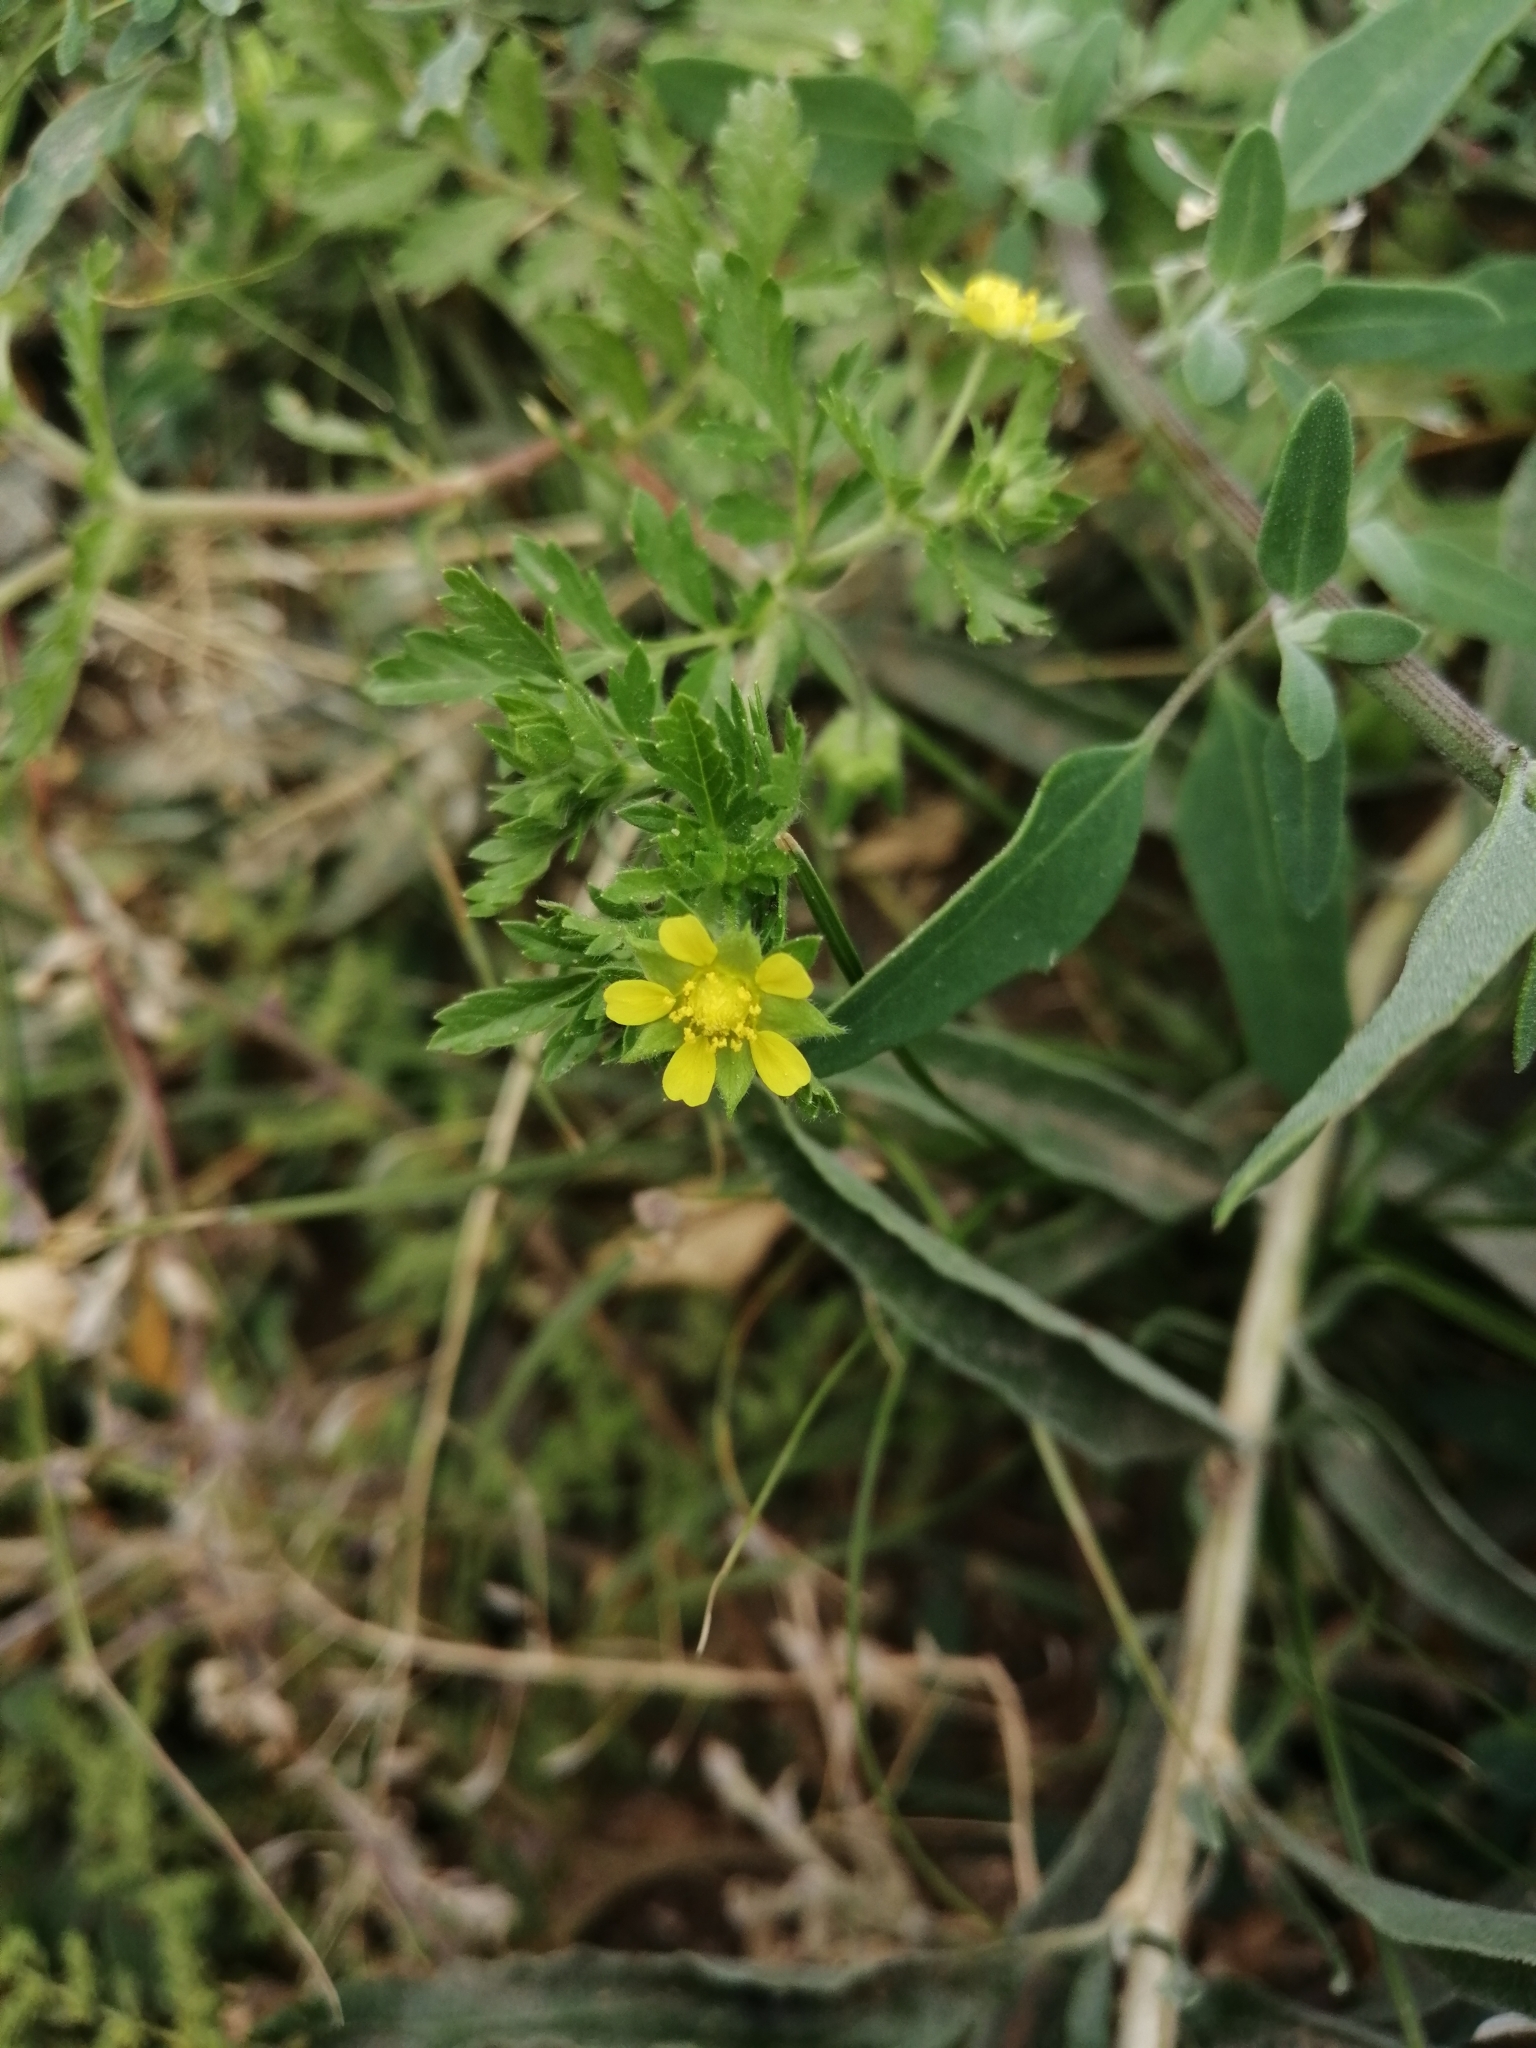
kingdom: Plantae
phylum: Tracheophyta
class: Magnoliopsida
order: Rosales
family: Rosaceae
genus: Potentilla
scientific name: Potentilla supina
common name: Prostrate cinquefoil
